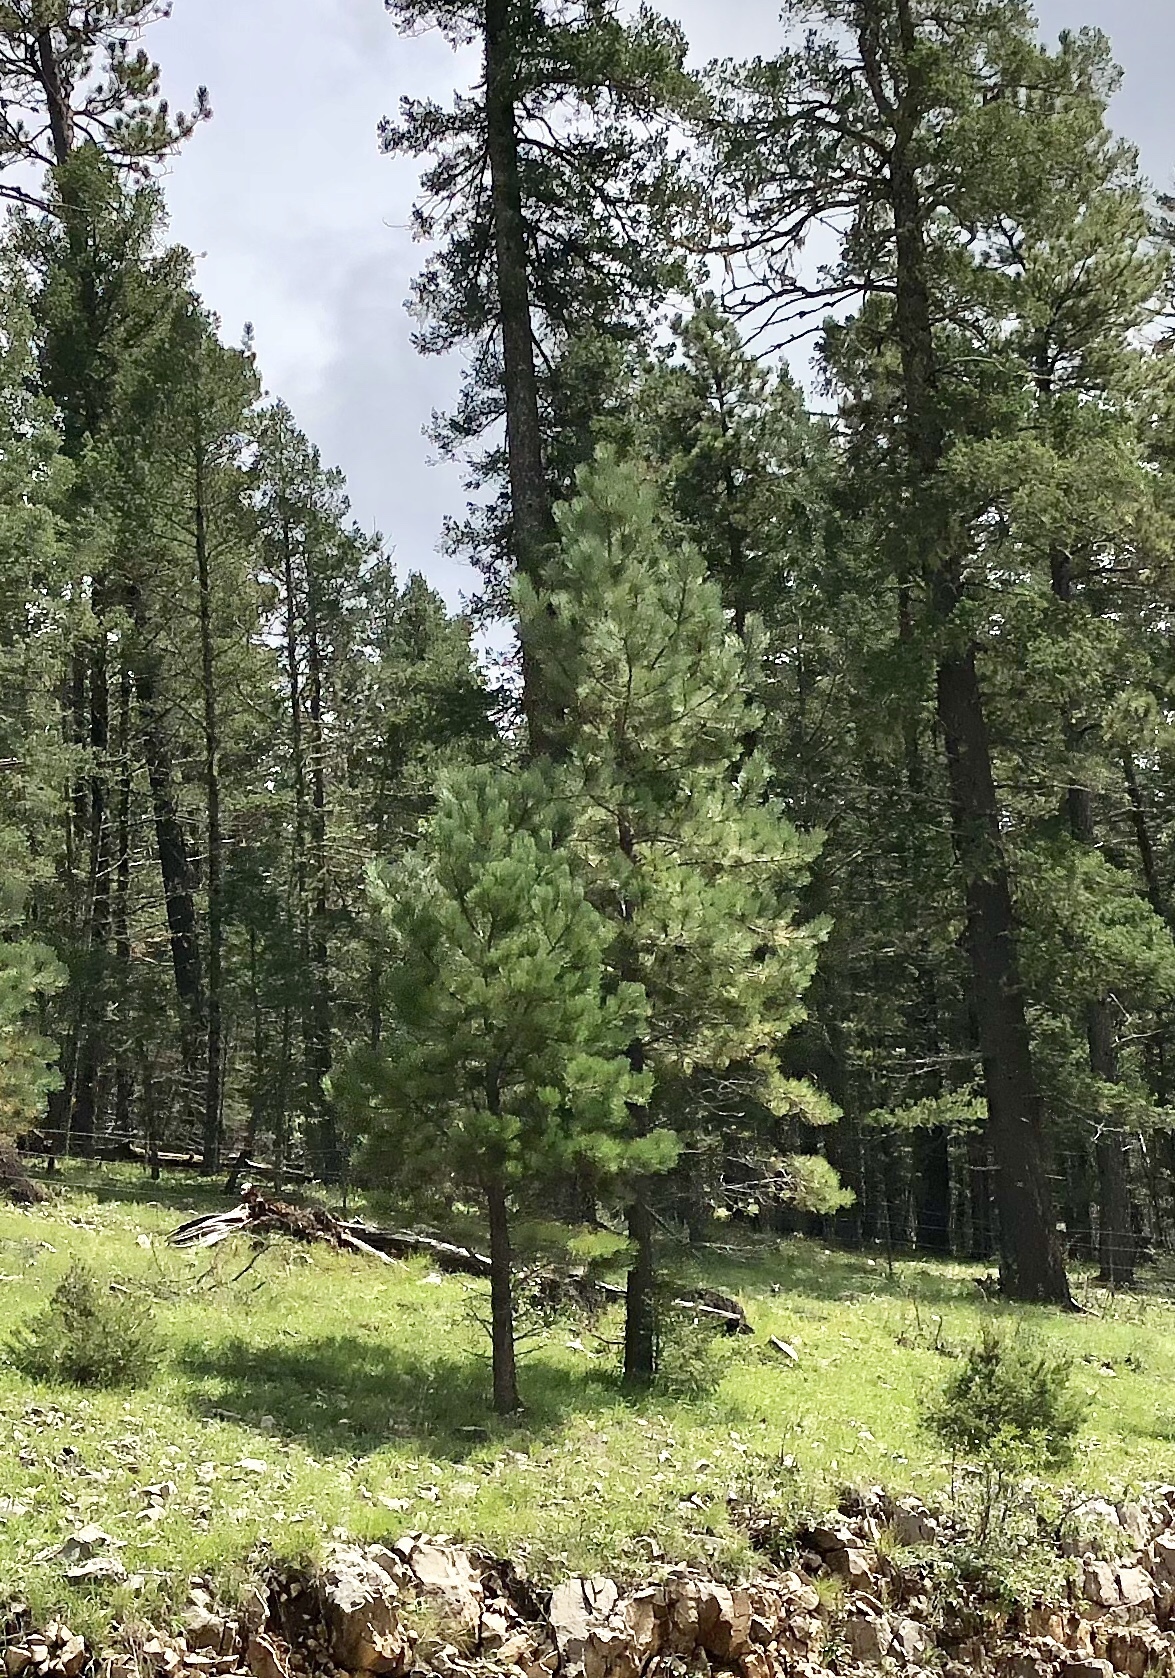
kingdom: Plantae
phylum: Tracheophyta
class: Pinopsida
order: Pinales
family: Pinaceae
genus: Pinus
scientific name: Pinus ponderosa
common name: Western yellow-pine
